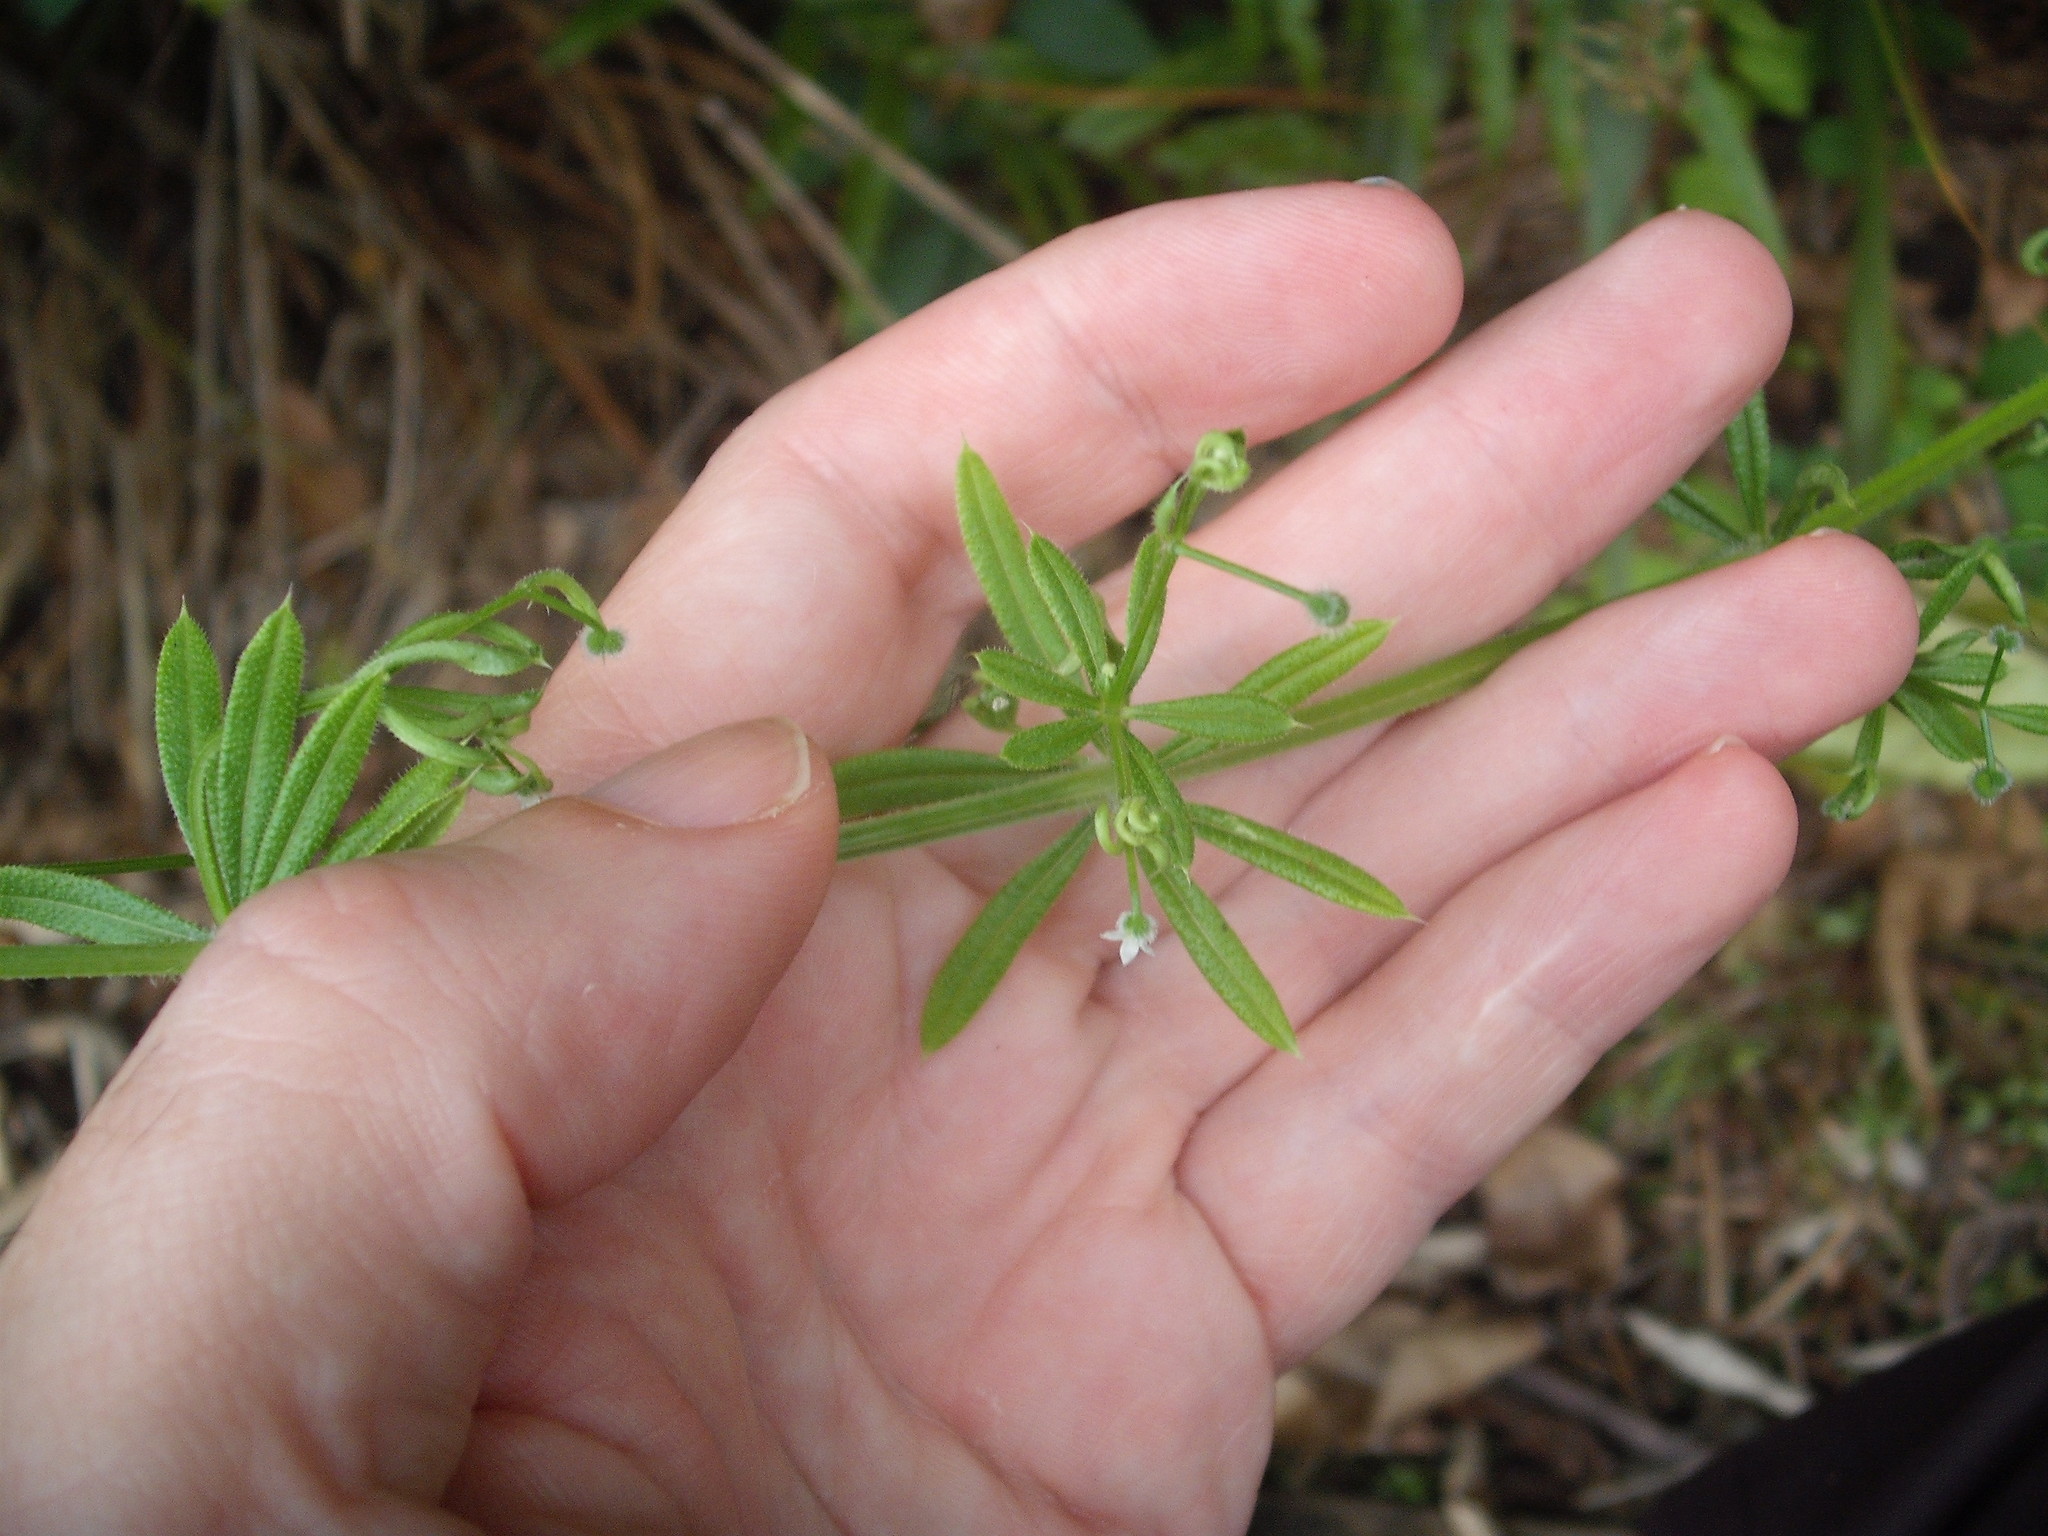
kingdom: Plantae
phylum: Tracheophyta
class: Magnoliopsida
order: Gentianales
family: Rubiaceae
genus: Galium
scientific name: Galium aparine
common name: Cleavers
